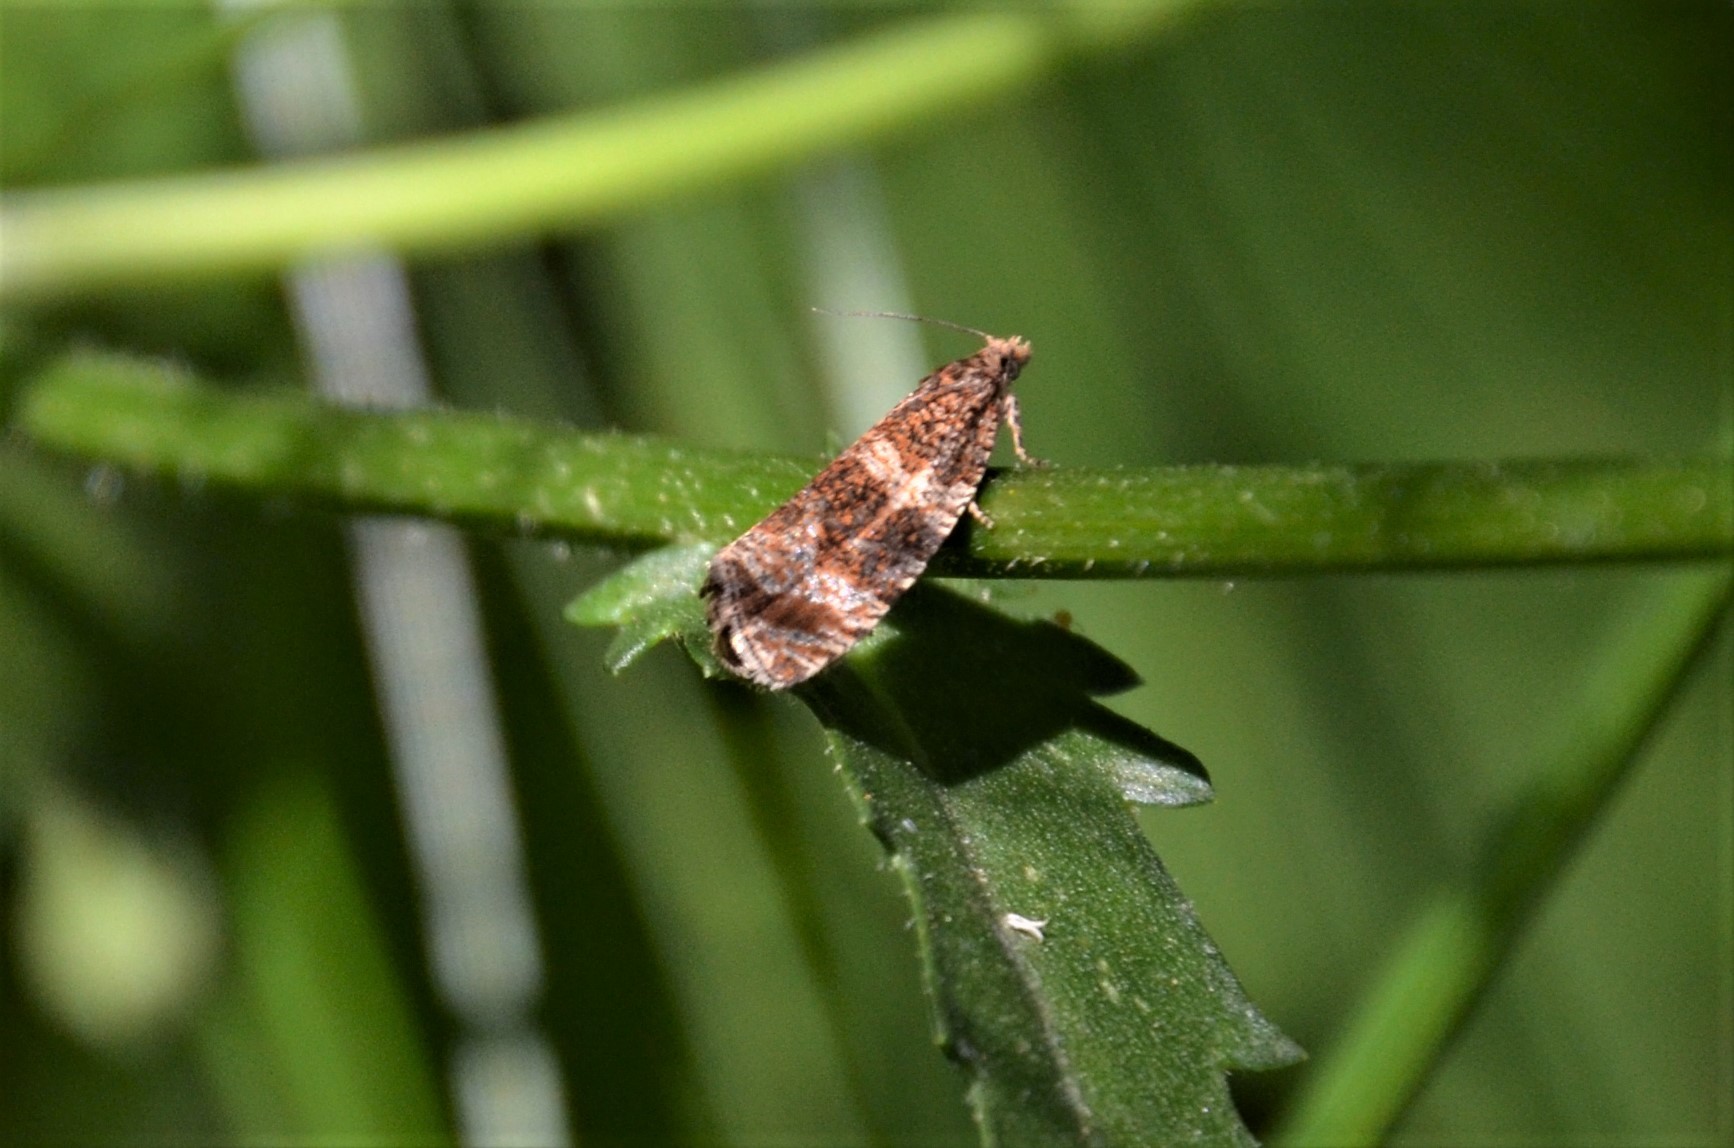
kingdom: Animalia
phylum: Arthropoda
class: Insecta
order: Lepidoptera
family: Tortricidae
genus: Syricoris
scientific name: Syricoris lacunana
